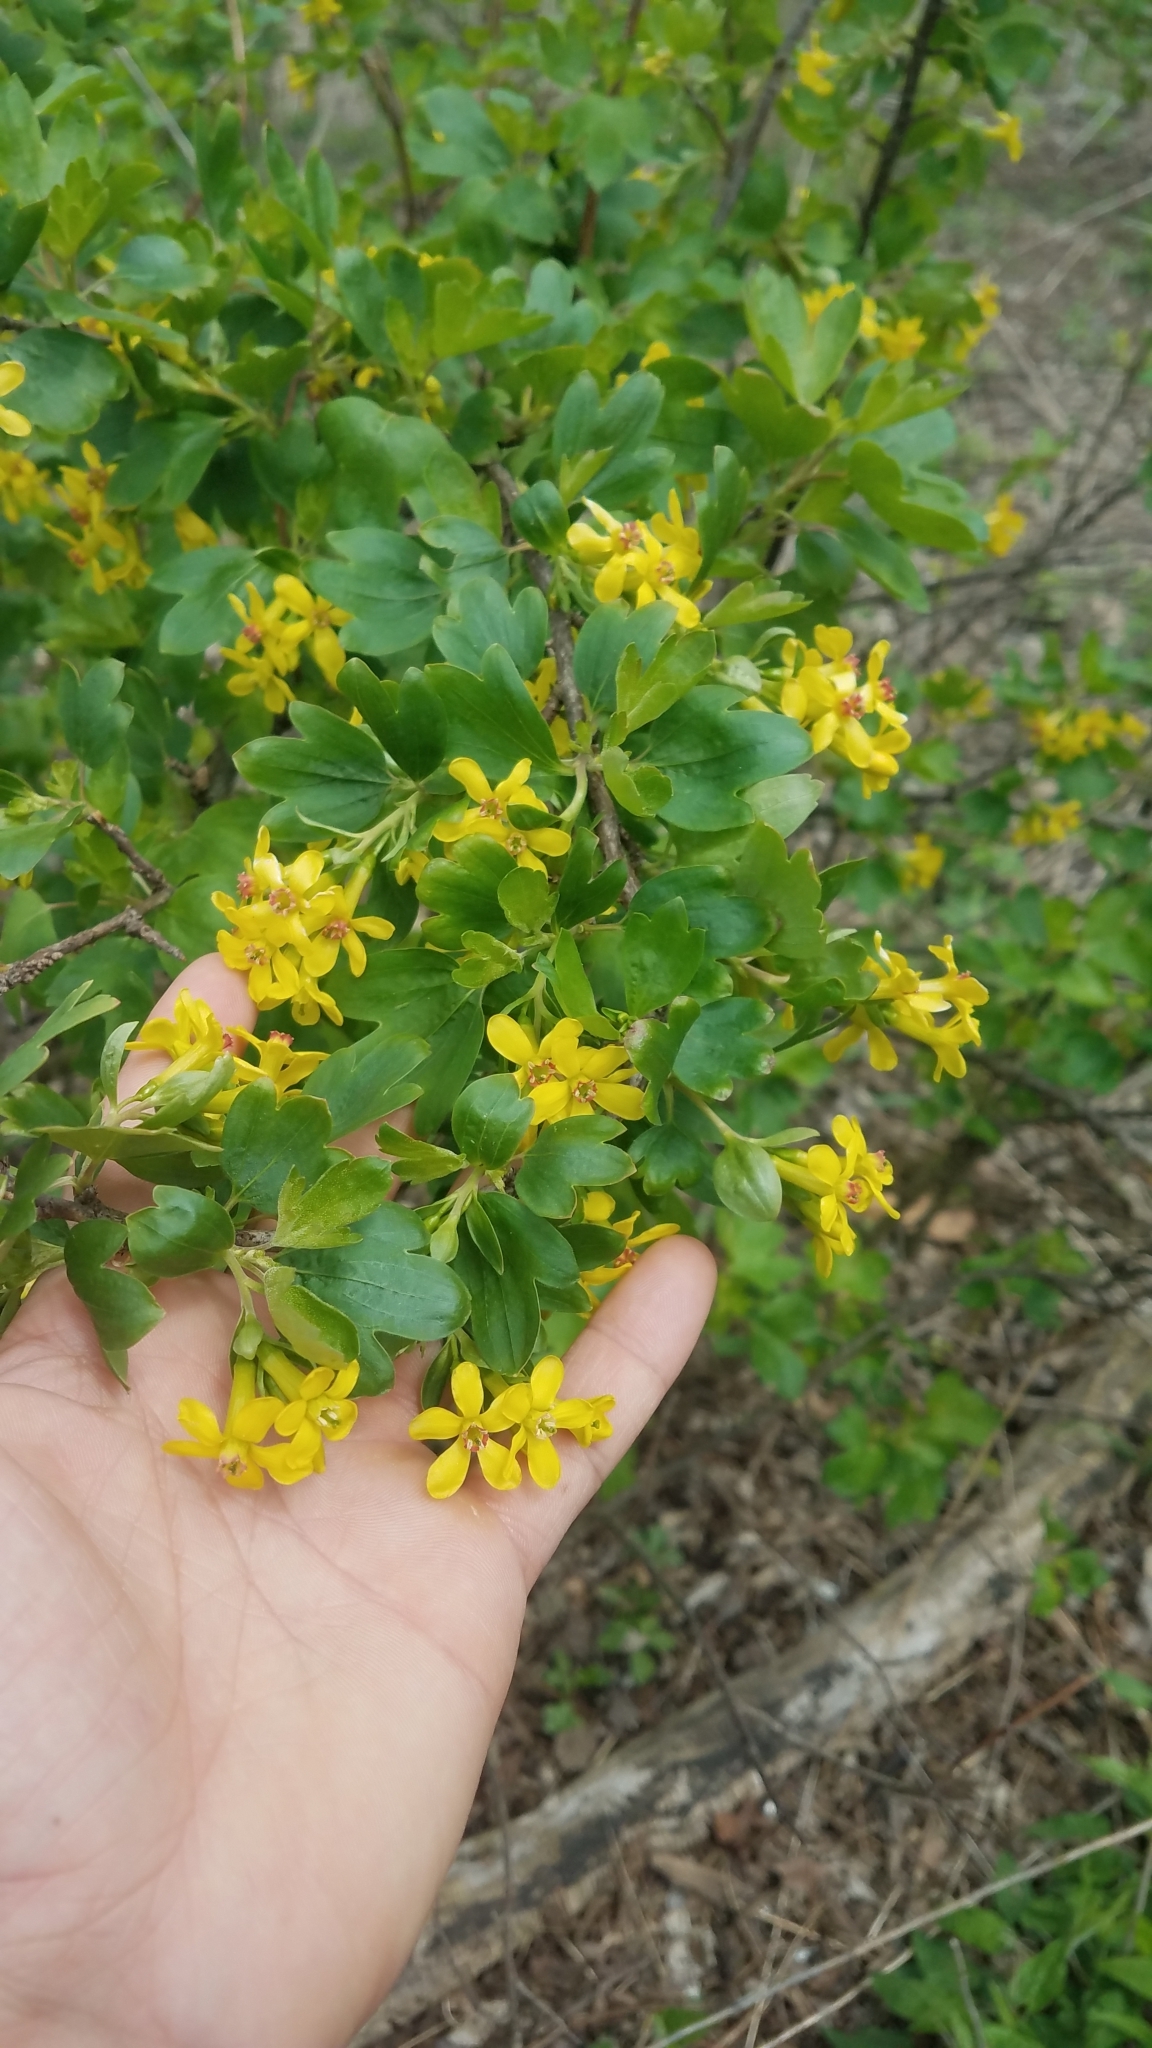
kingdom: Plantae
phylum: Tracheophyta
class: Magnoliopsida
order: Saxifragales
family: Grossulariaceae
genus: Ribes
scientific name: Ribes aureum
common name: Golden currant
